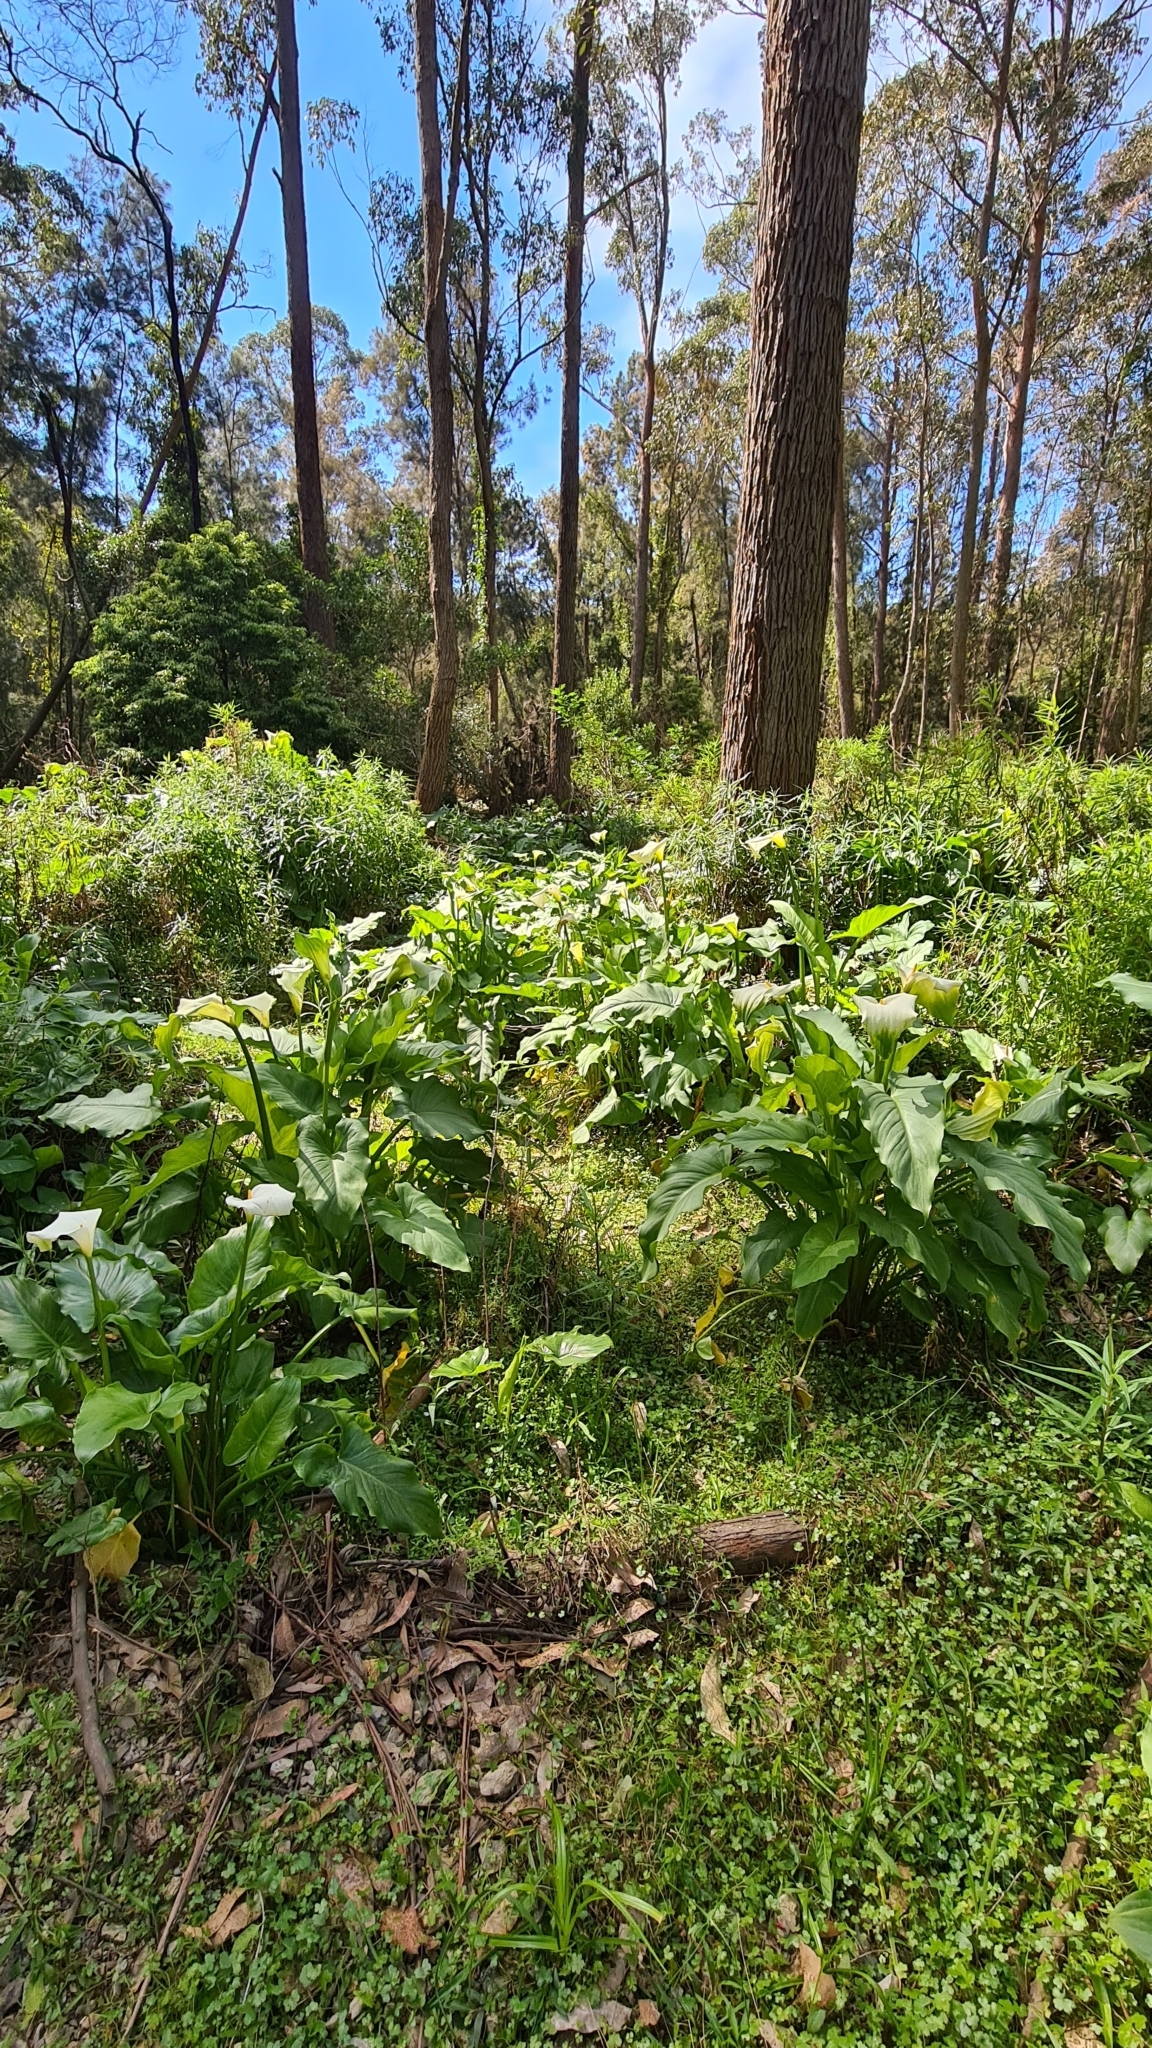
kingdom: Plantae
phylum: Tracheophyta
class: Liliopsida
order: Alismatales
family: Araceae
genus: Zantedeschia
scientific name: Zantedeschia aethiopica
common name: Altar-lily
